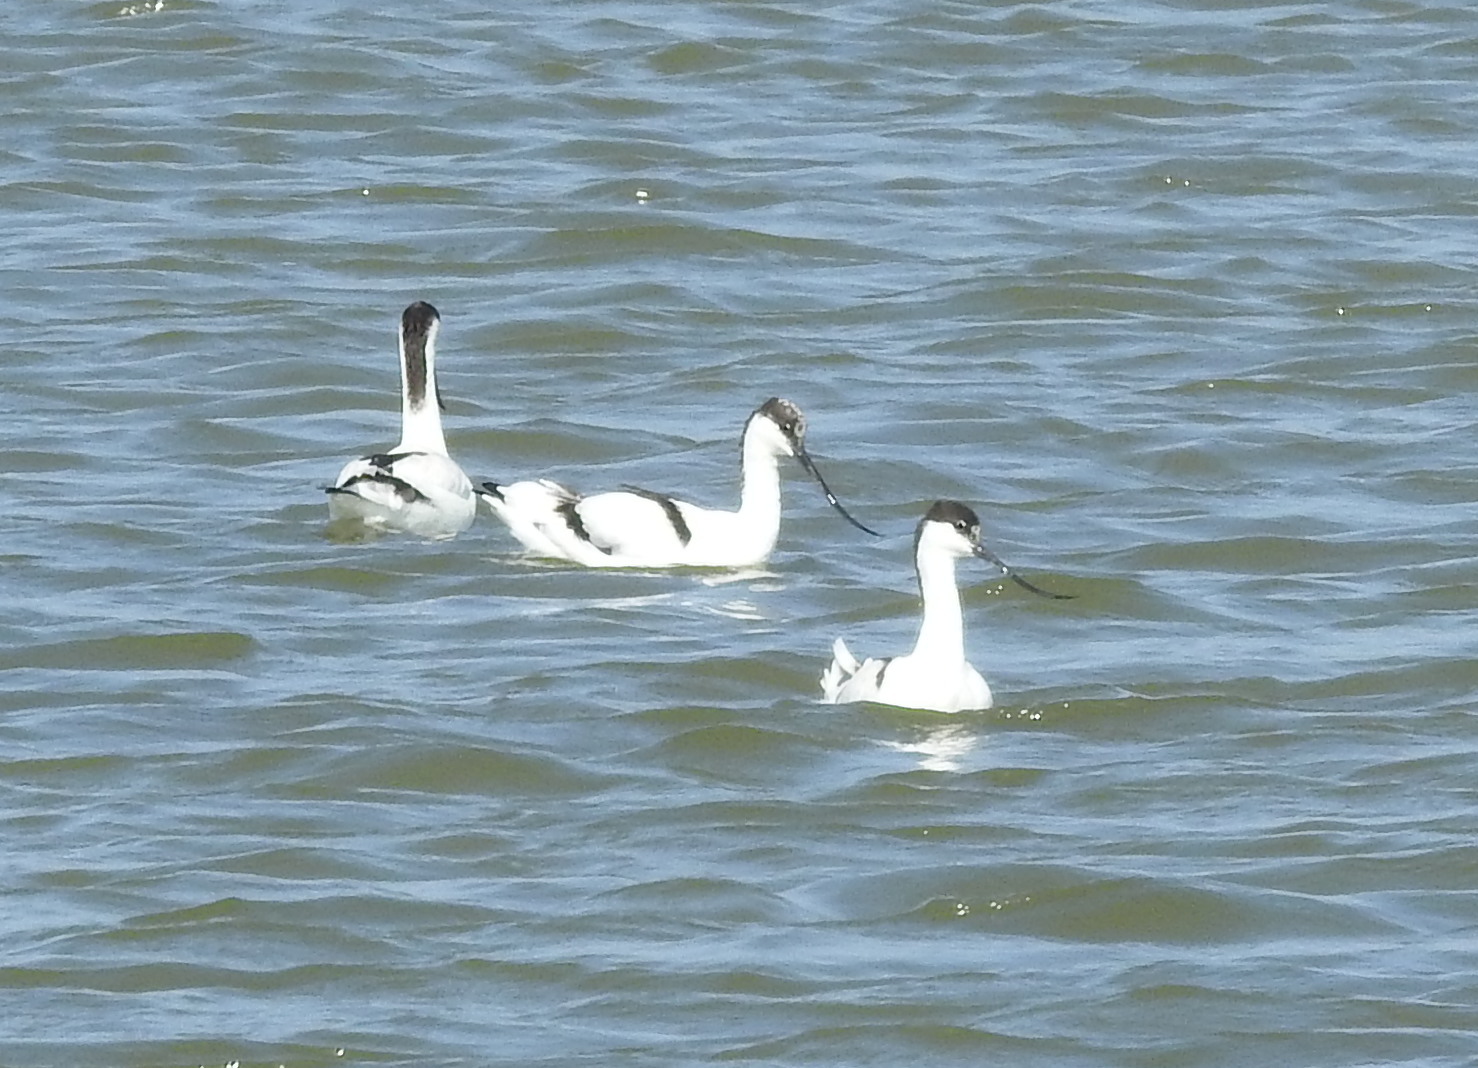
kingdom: Animalia
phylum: Chordata
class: Aves
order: Charadriiformes
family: Recurvirostridae
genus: Recurvirostra
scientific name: Recurvirostra avosetta
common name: Pied avocet
